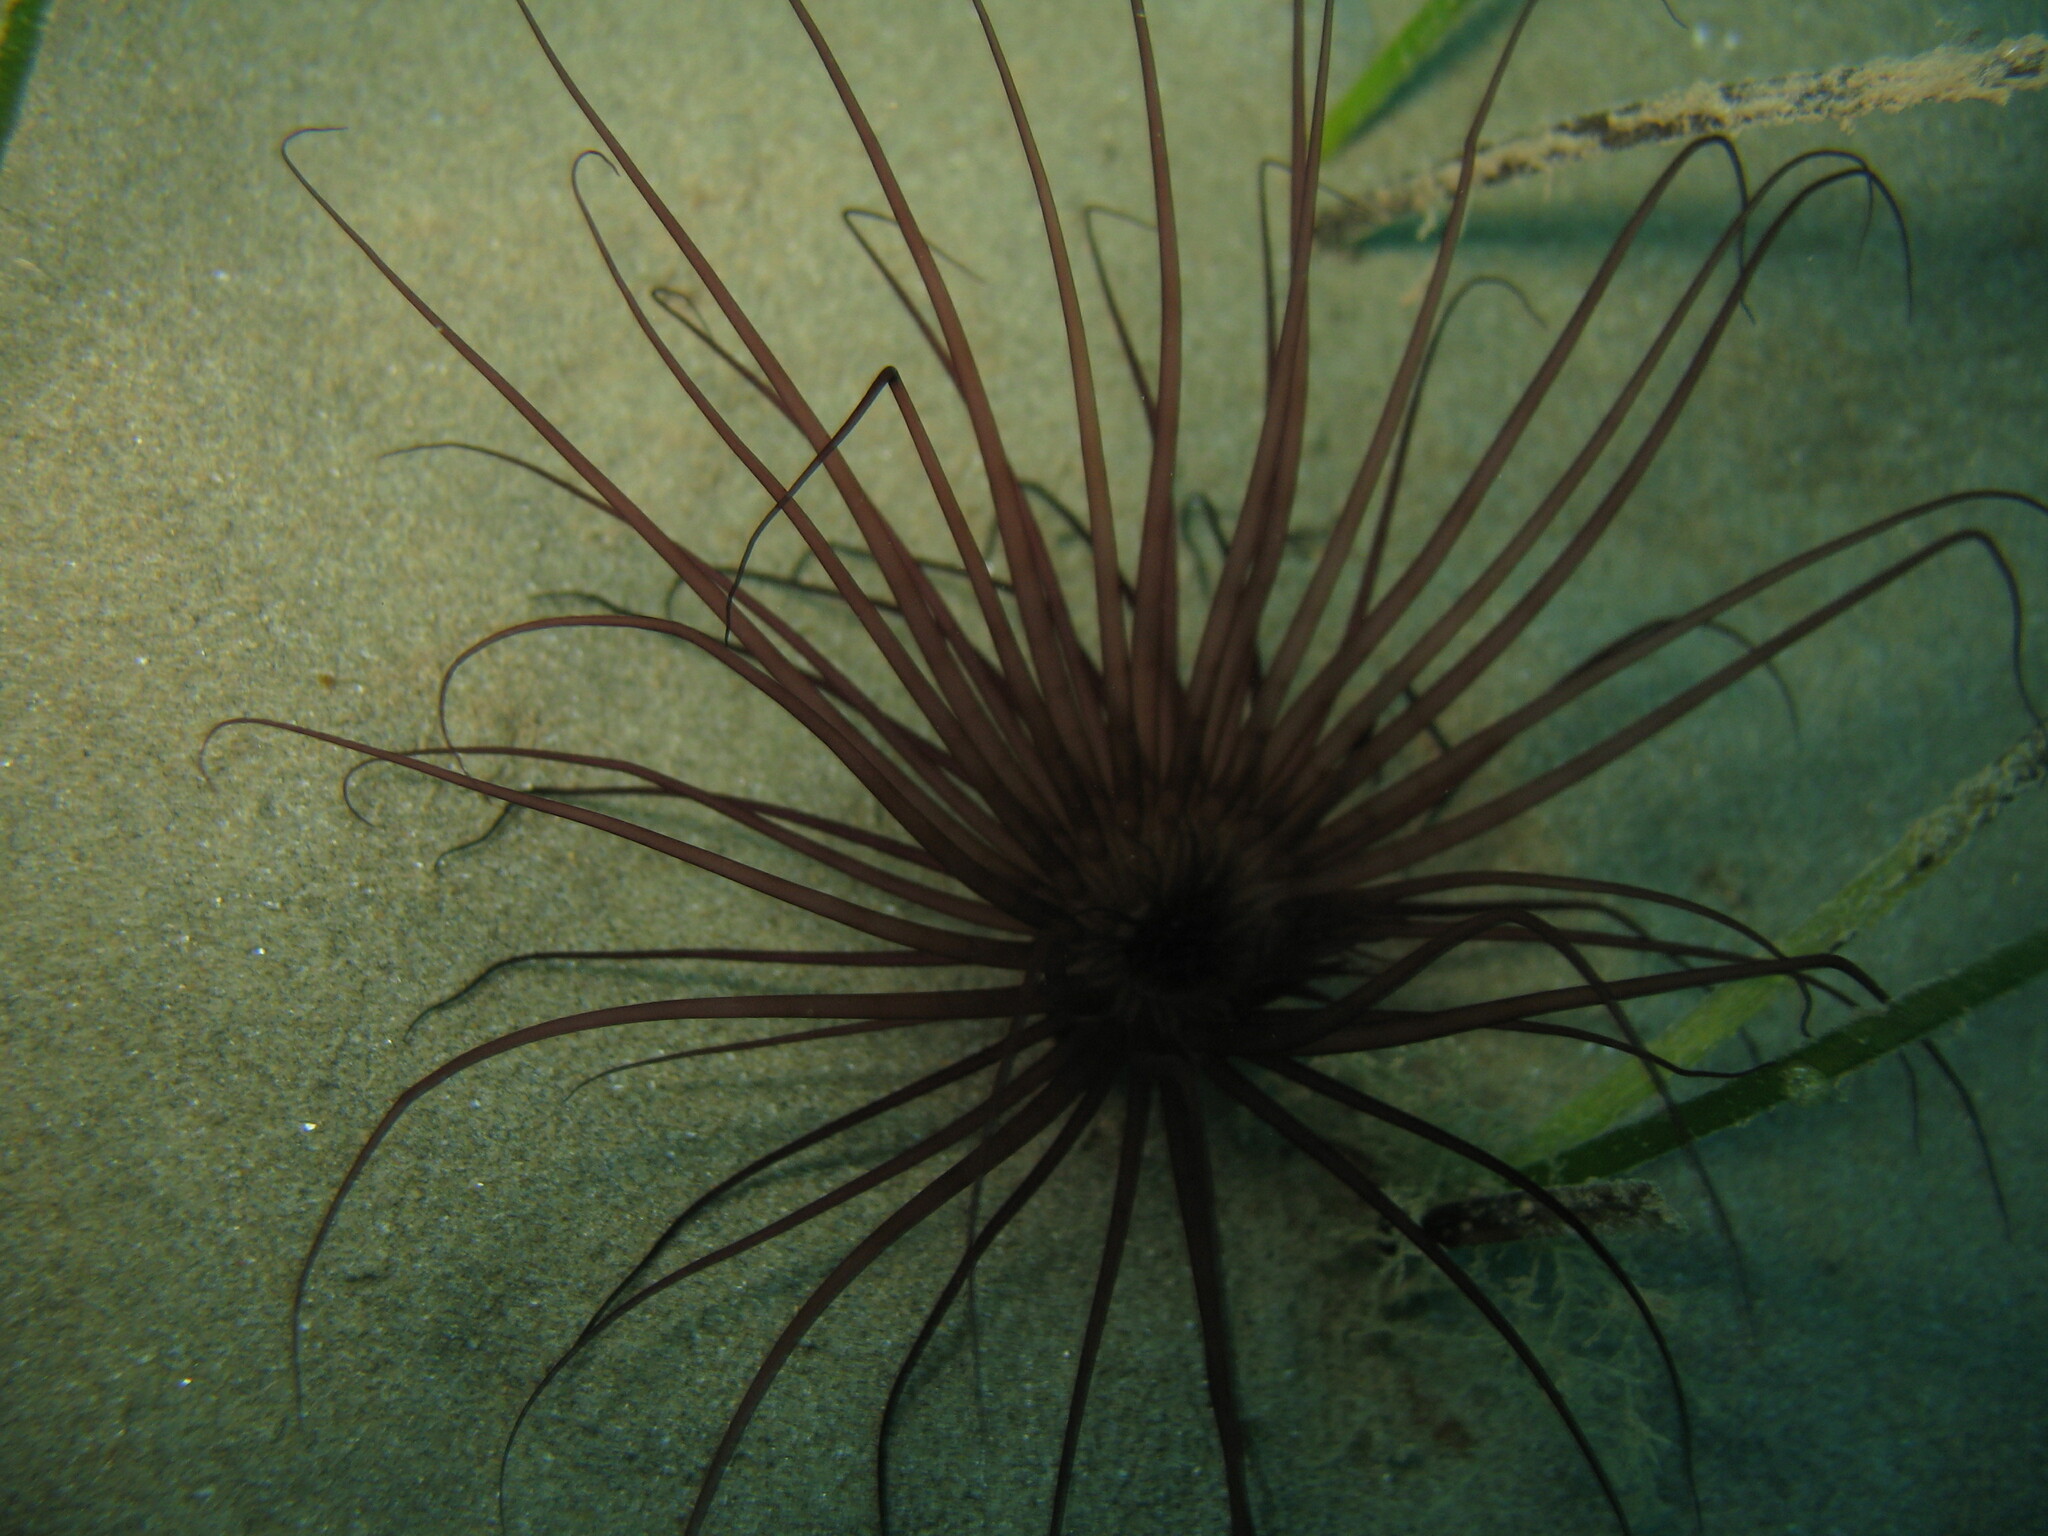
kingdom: Animalia
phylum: Cnidaria
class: Anthozoa
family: Cerianthidae
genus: Pachycerianthus
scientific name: Pachycerianthus solitarius
